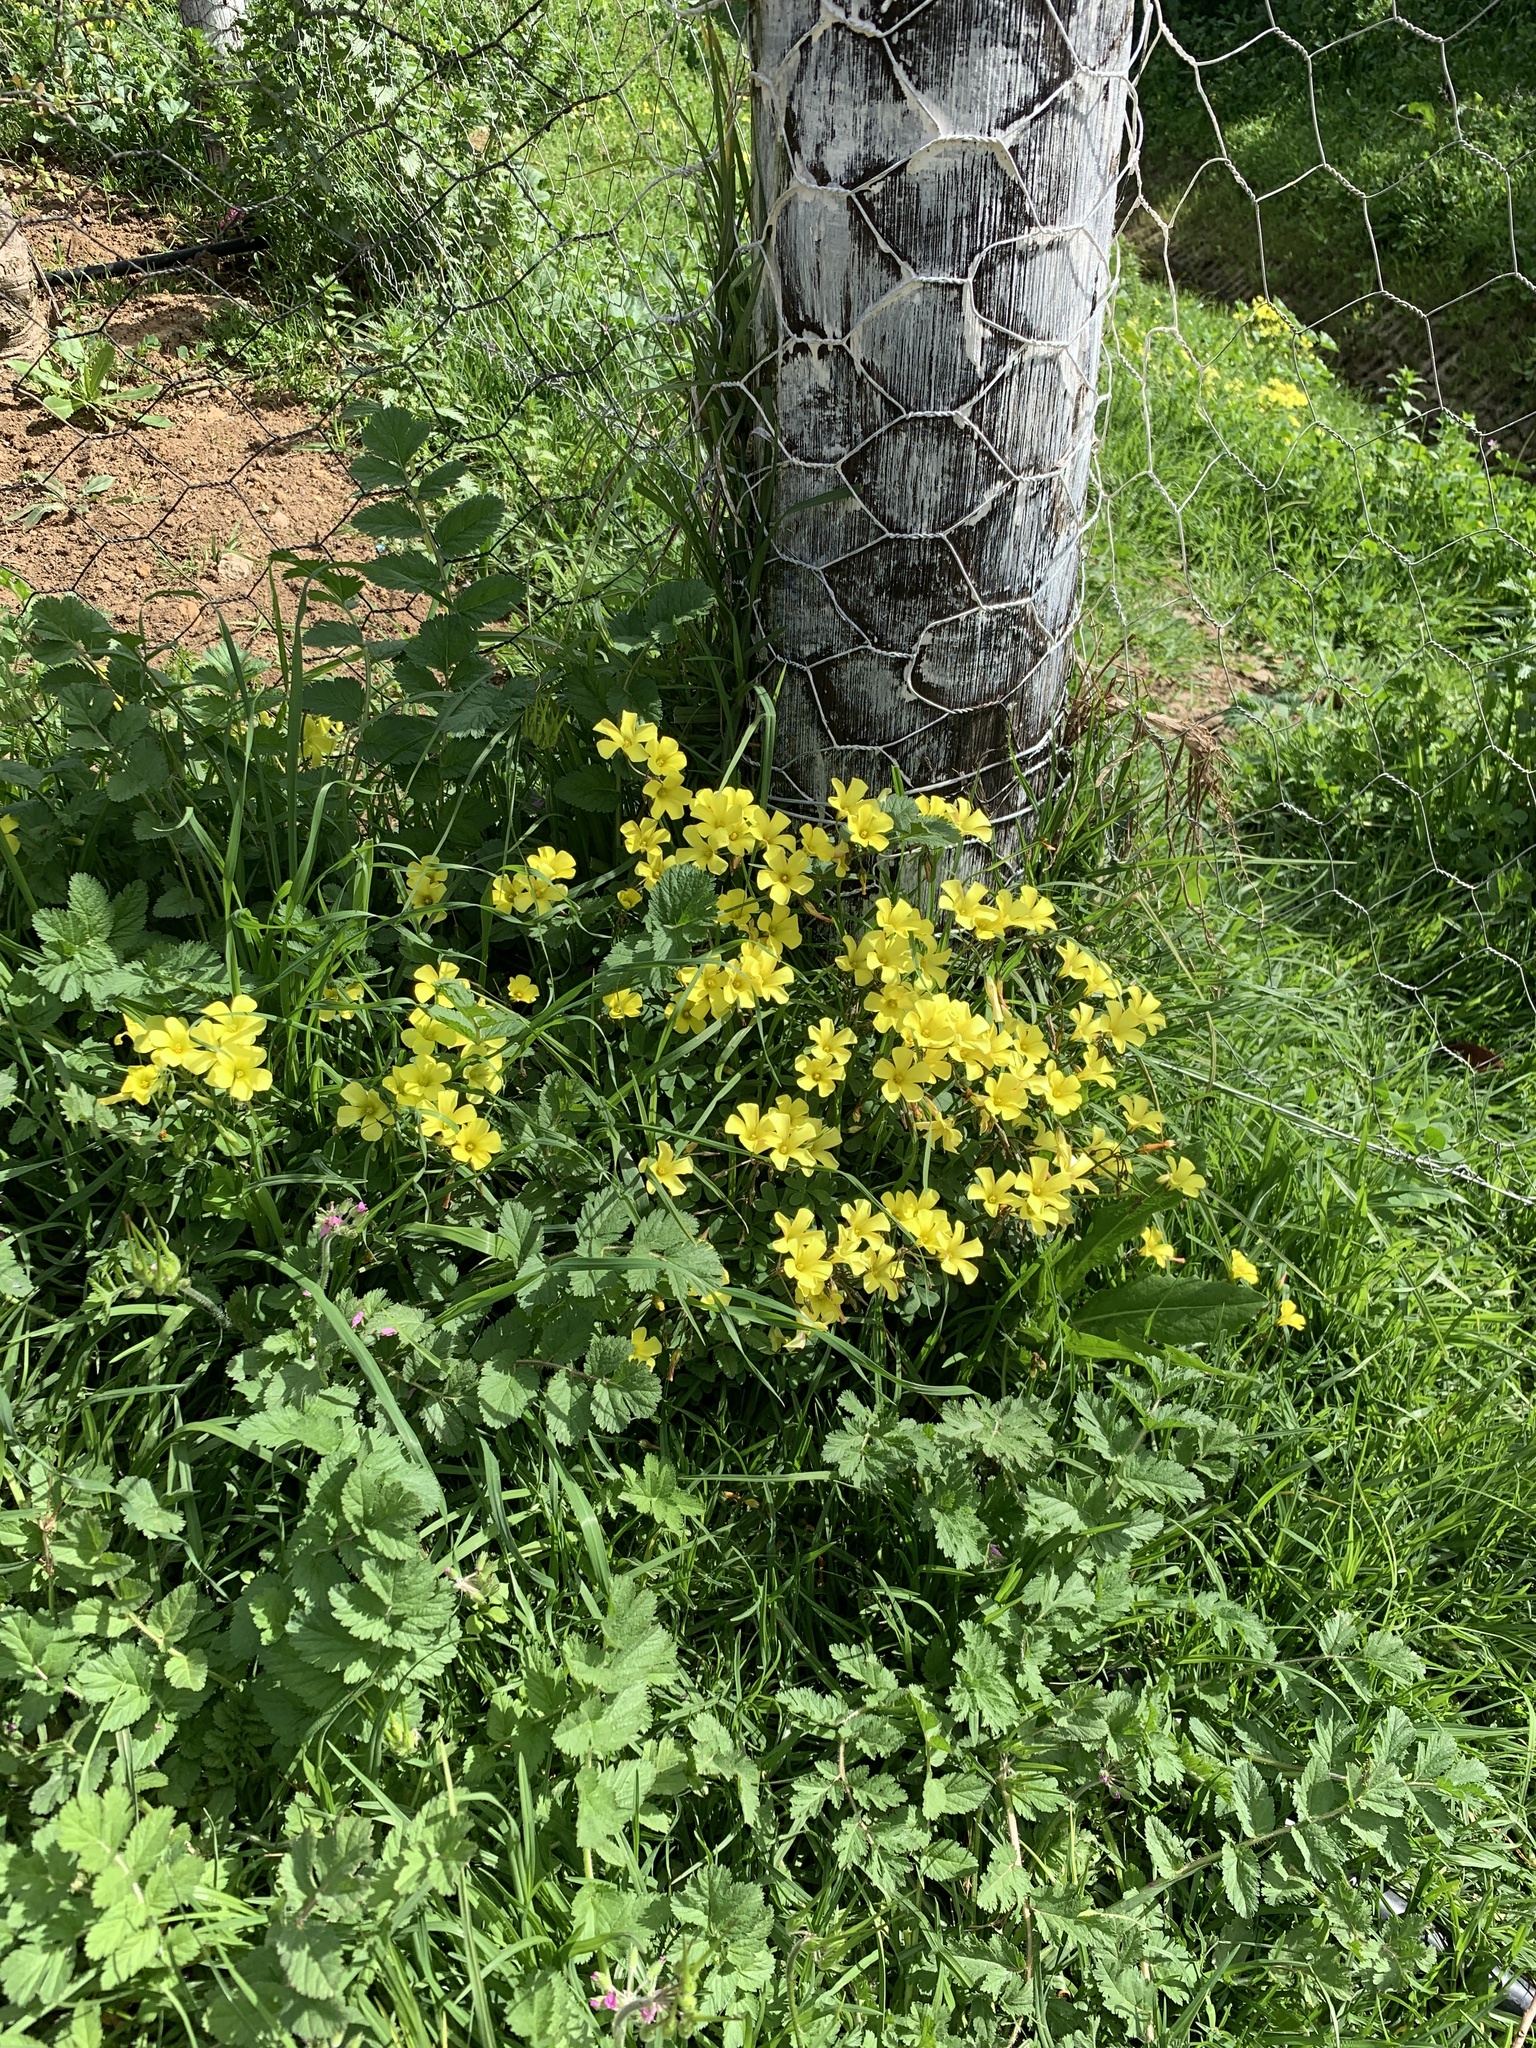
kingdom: Plantae
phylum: Tracheophyta
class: Magnoliopsida
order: Oxalidales
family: Oxalidaceae
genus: Oxalis
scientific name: Oxalis pes-caprae
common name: Bermuda-buttercup
